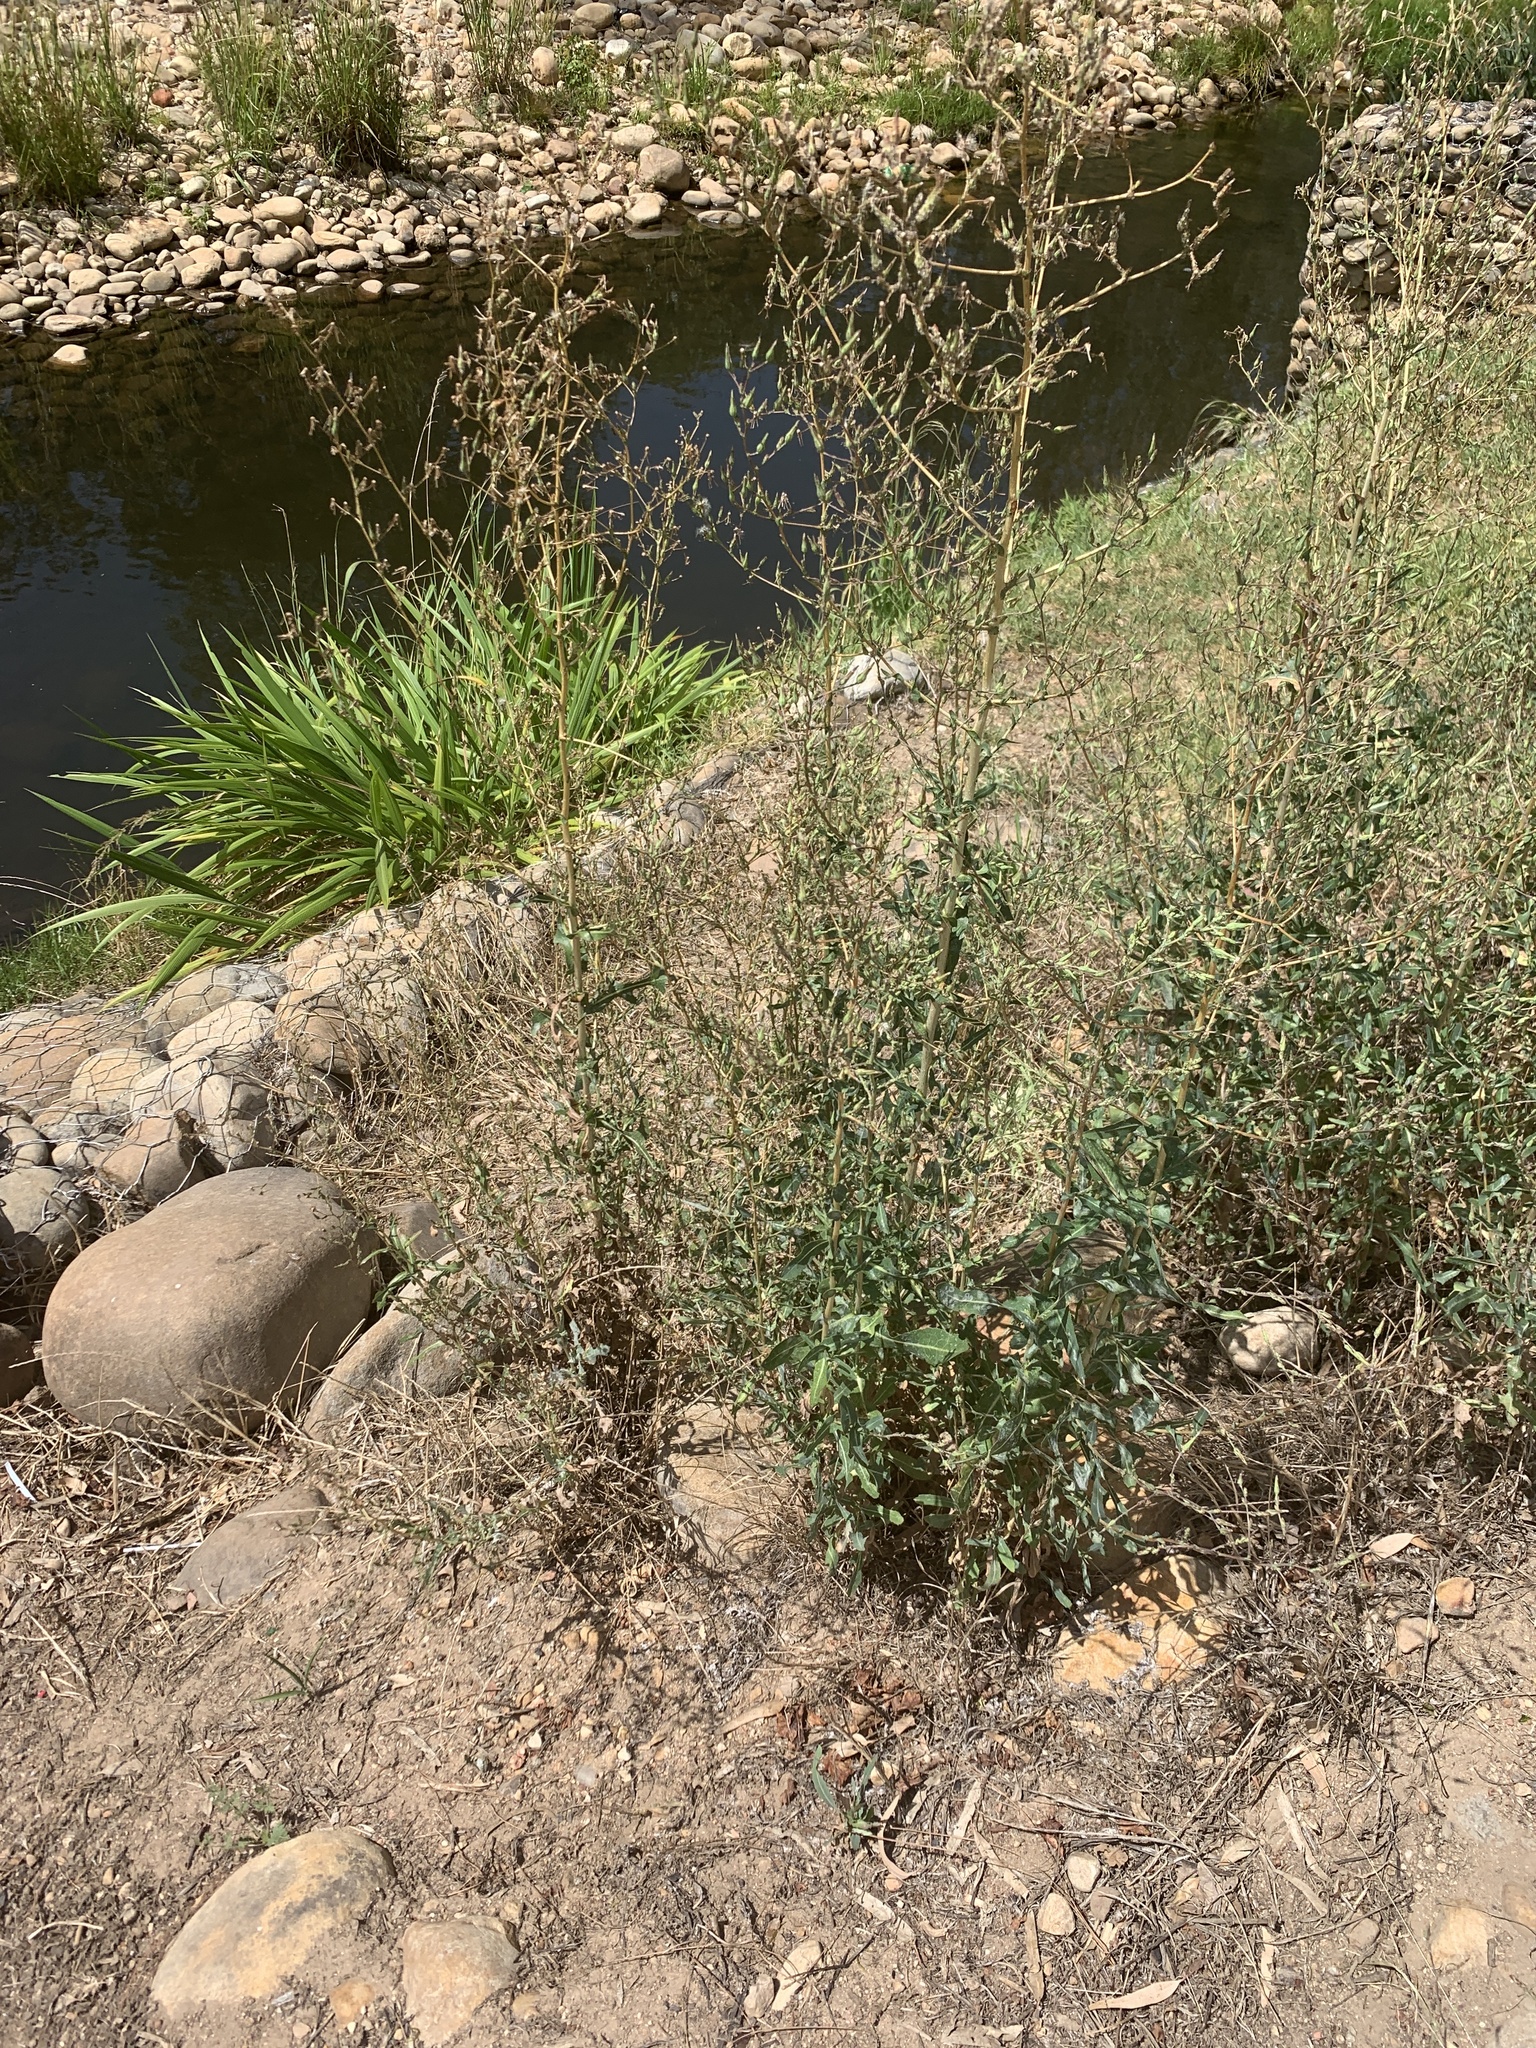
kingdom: Plantae
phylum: Tracheophyta
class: Magnoliopsida
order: Asterales
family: Asteraceae
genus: Lactuca
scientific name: Lactuca serriola
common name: Prickly lettuce
